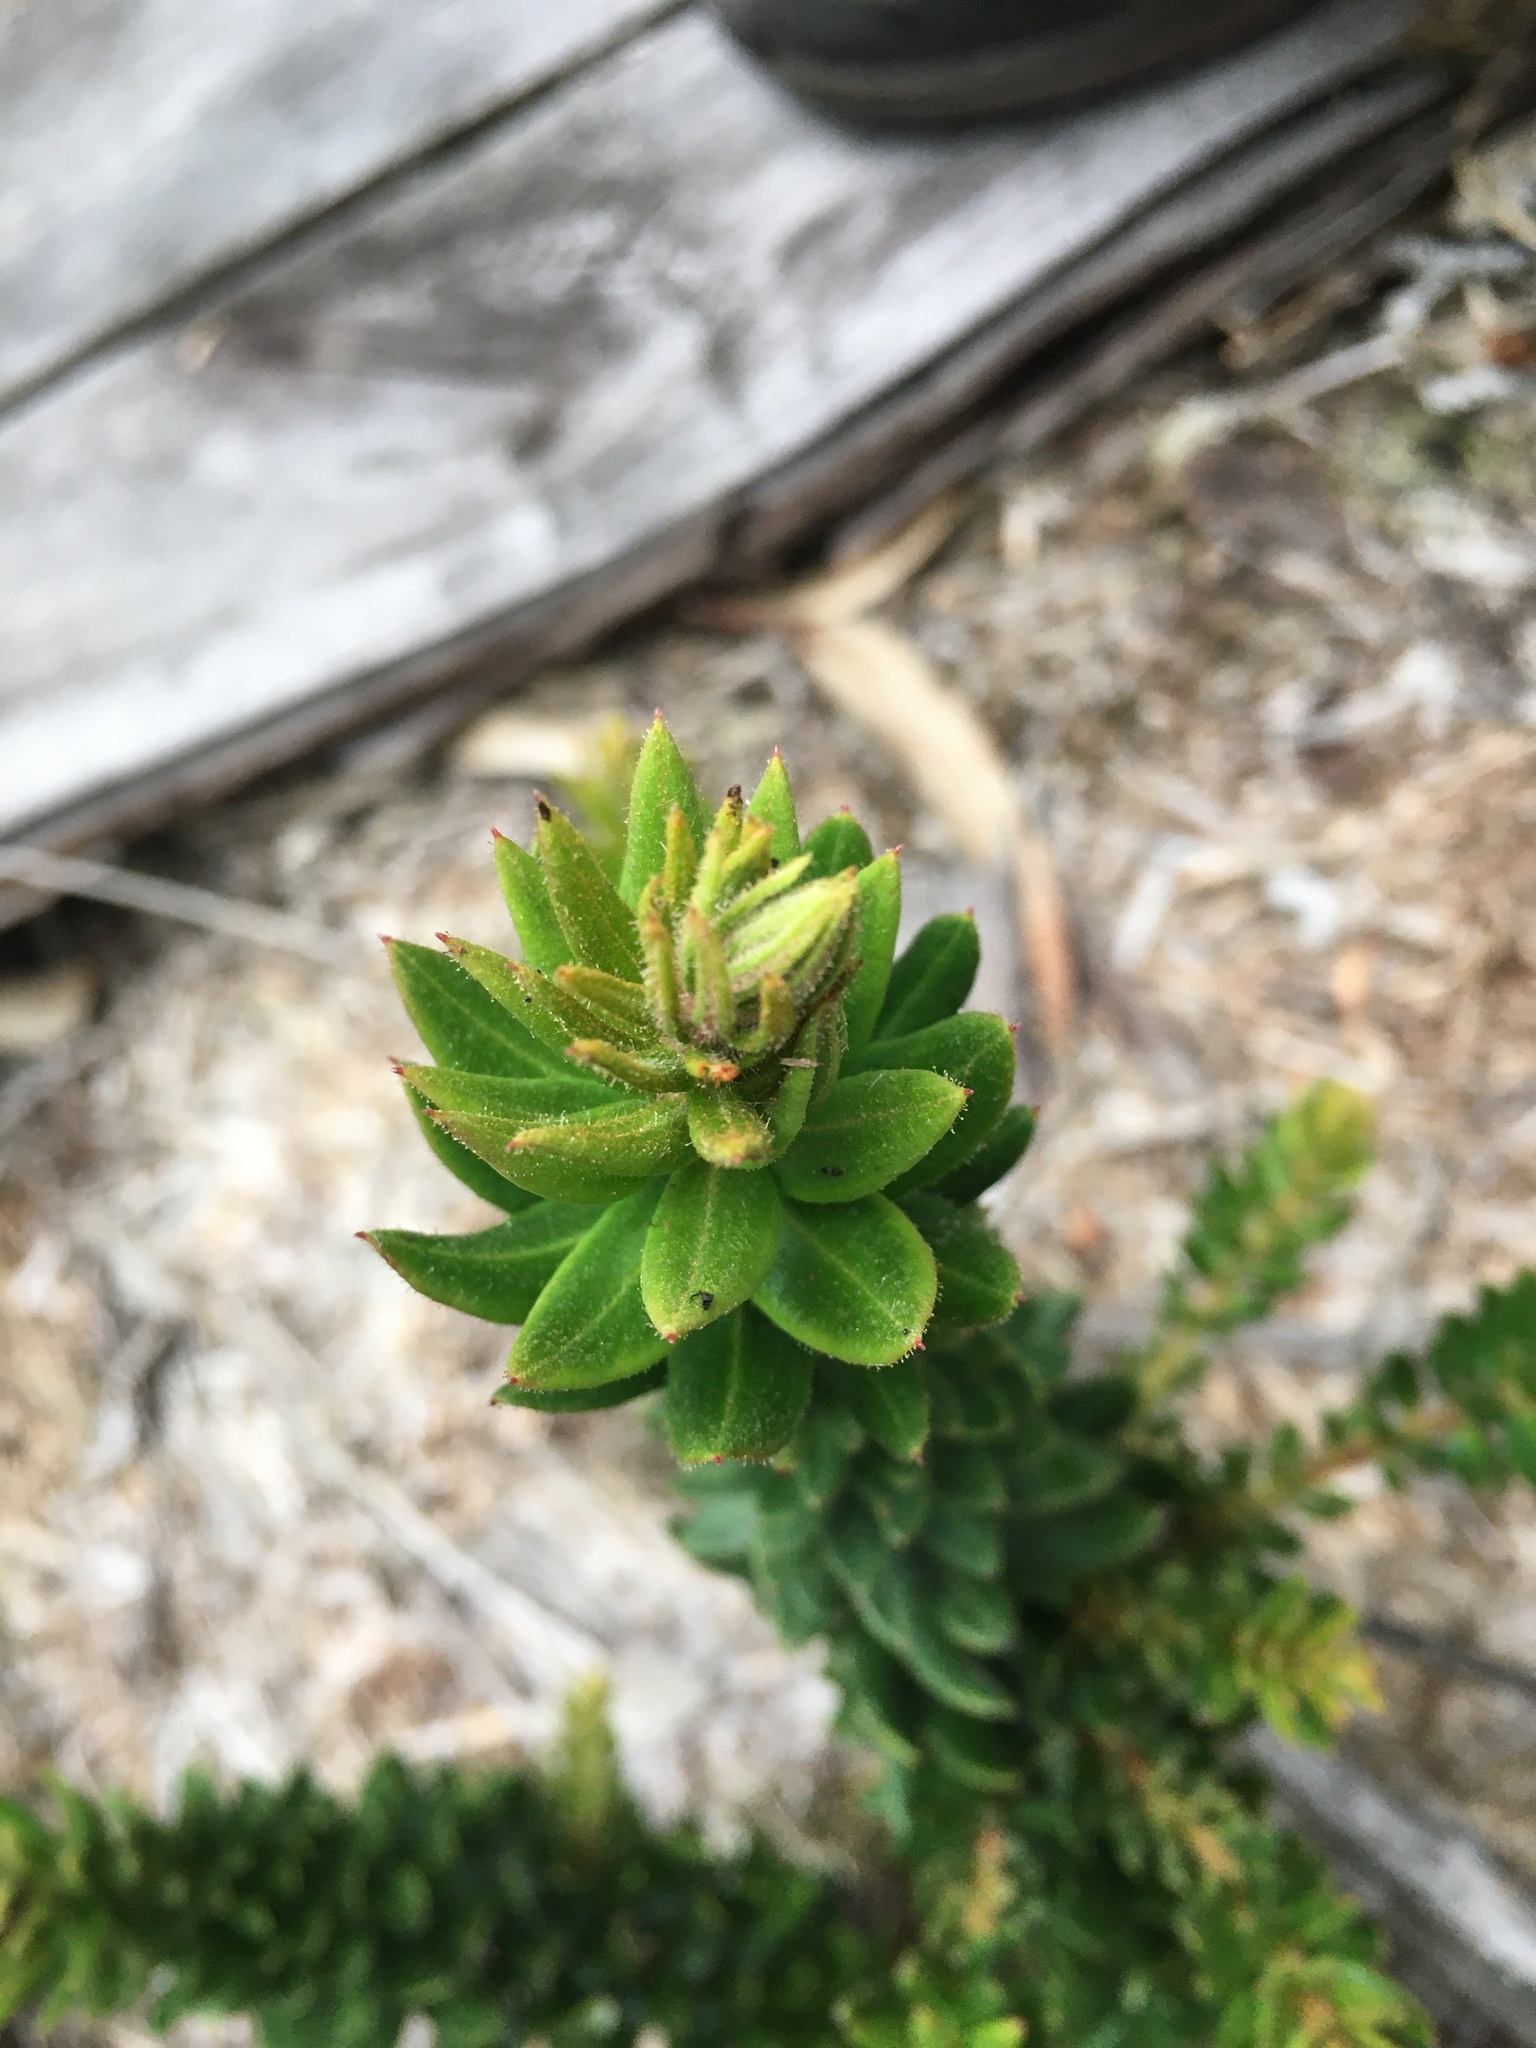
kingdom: Plantae
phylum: Tracheophyta
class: Magnoliopsida
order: Ericales
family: Ericaceae
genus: Bejaria
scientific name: Bejaria resinosa
